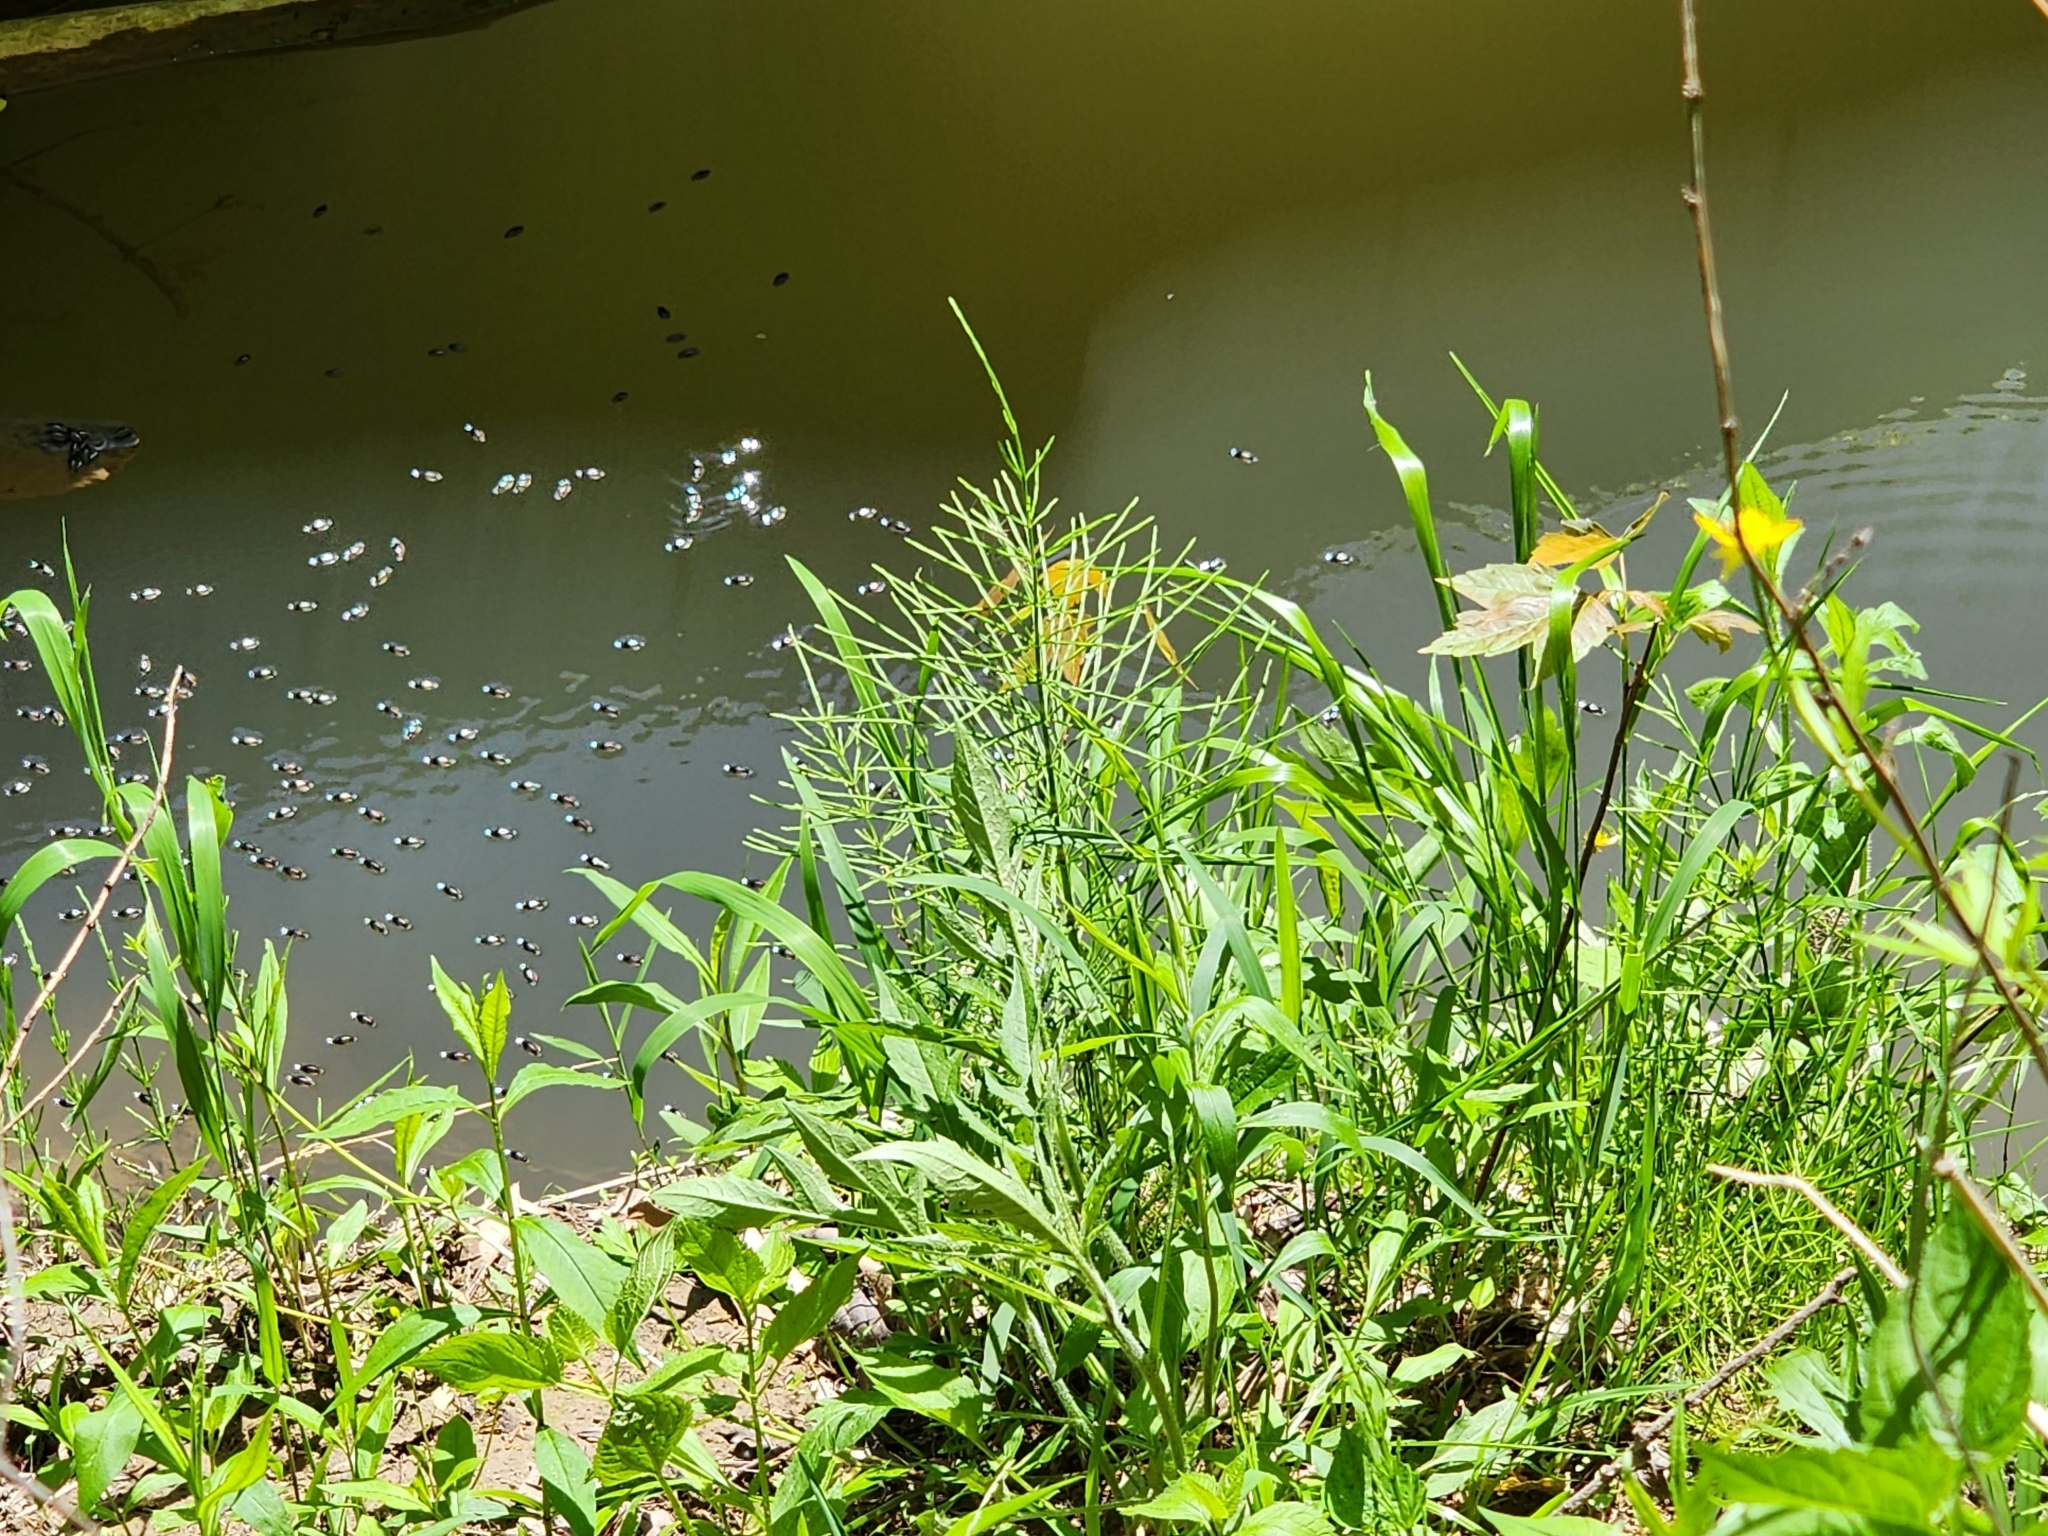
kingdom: Plantae
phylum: Tracheophyta
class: Polypodiopsida
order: Equisetales
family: Equisetaceae
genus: Equisetum
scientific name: Equisetum arvense
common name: Field horsetail
